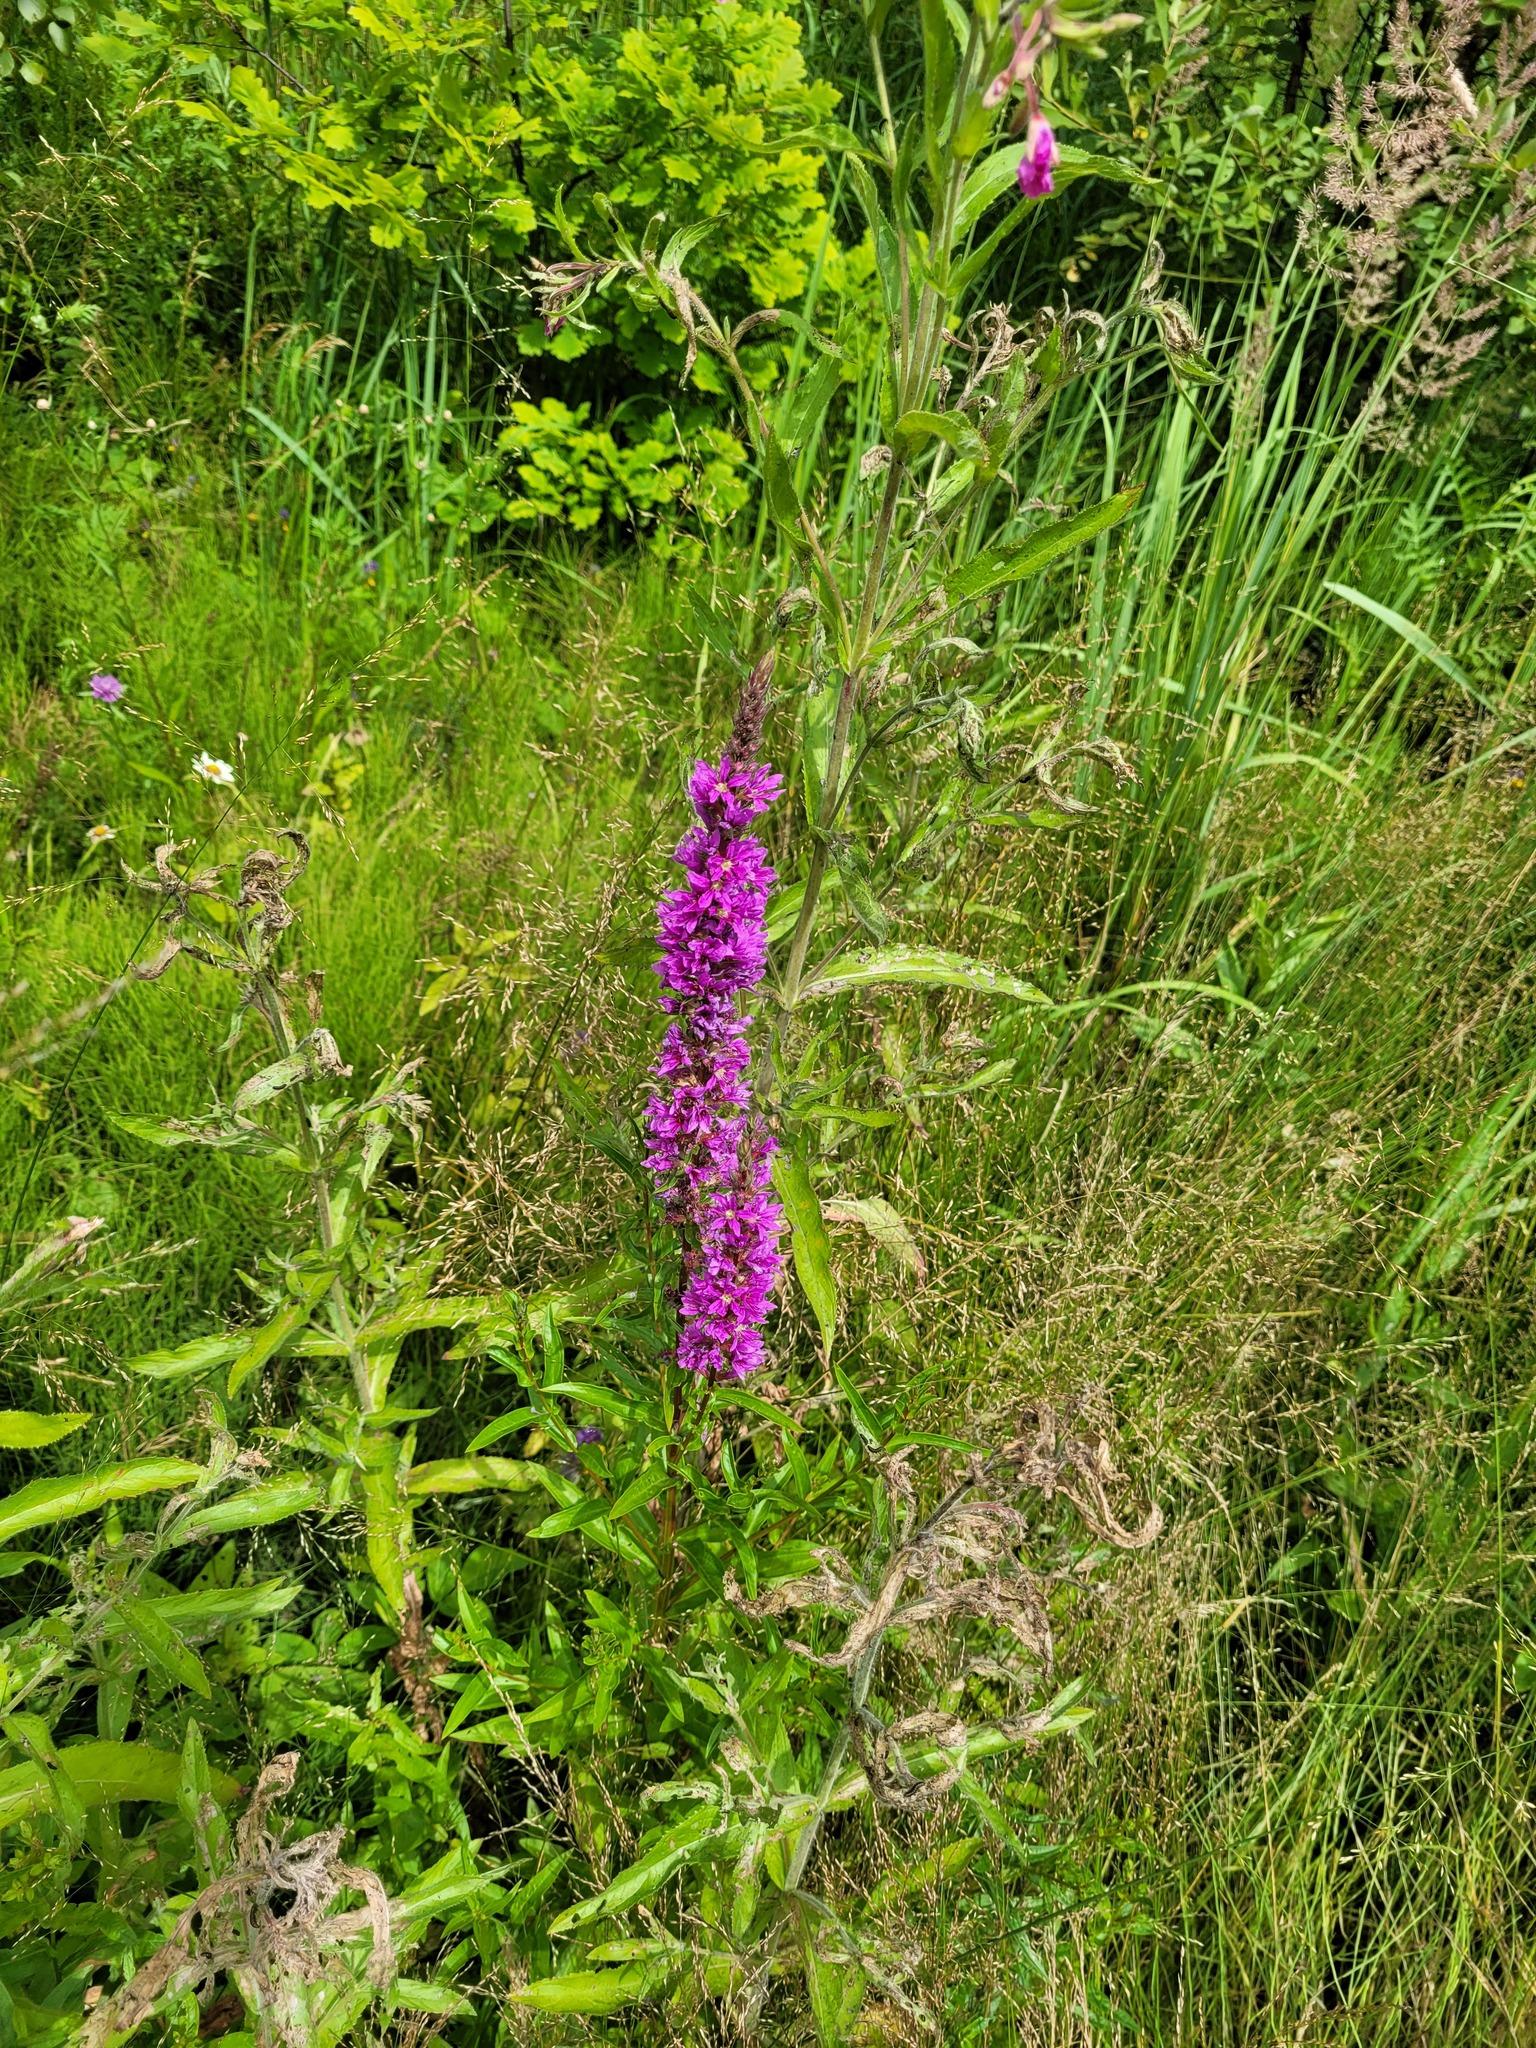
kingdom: Plantae
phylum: Tracheophyta
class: Magnoliopsida
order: Myrtales
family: Lythraceae
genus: Lythrum
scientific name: Lythrum salicaria
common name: Purple loosestrife
